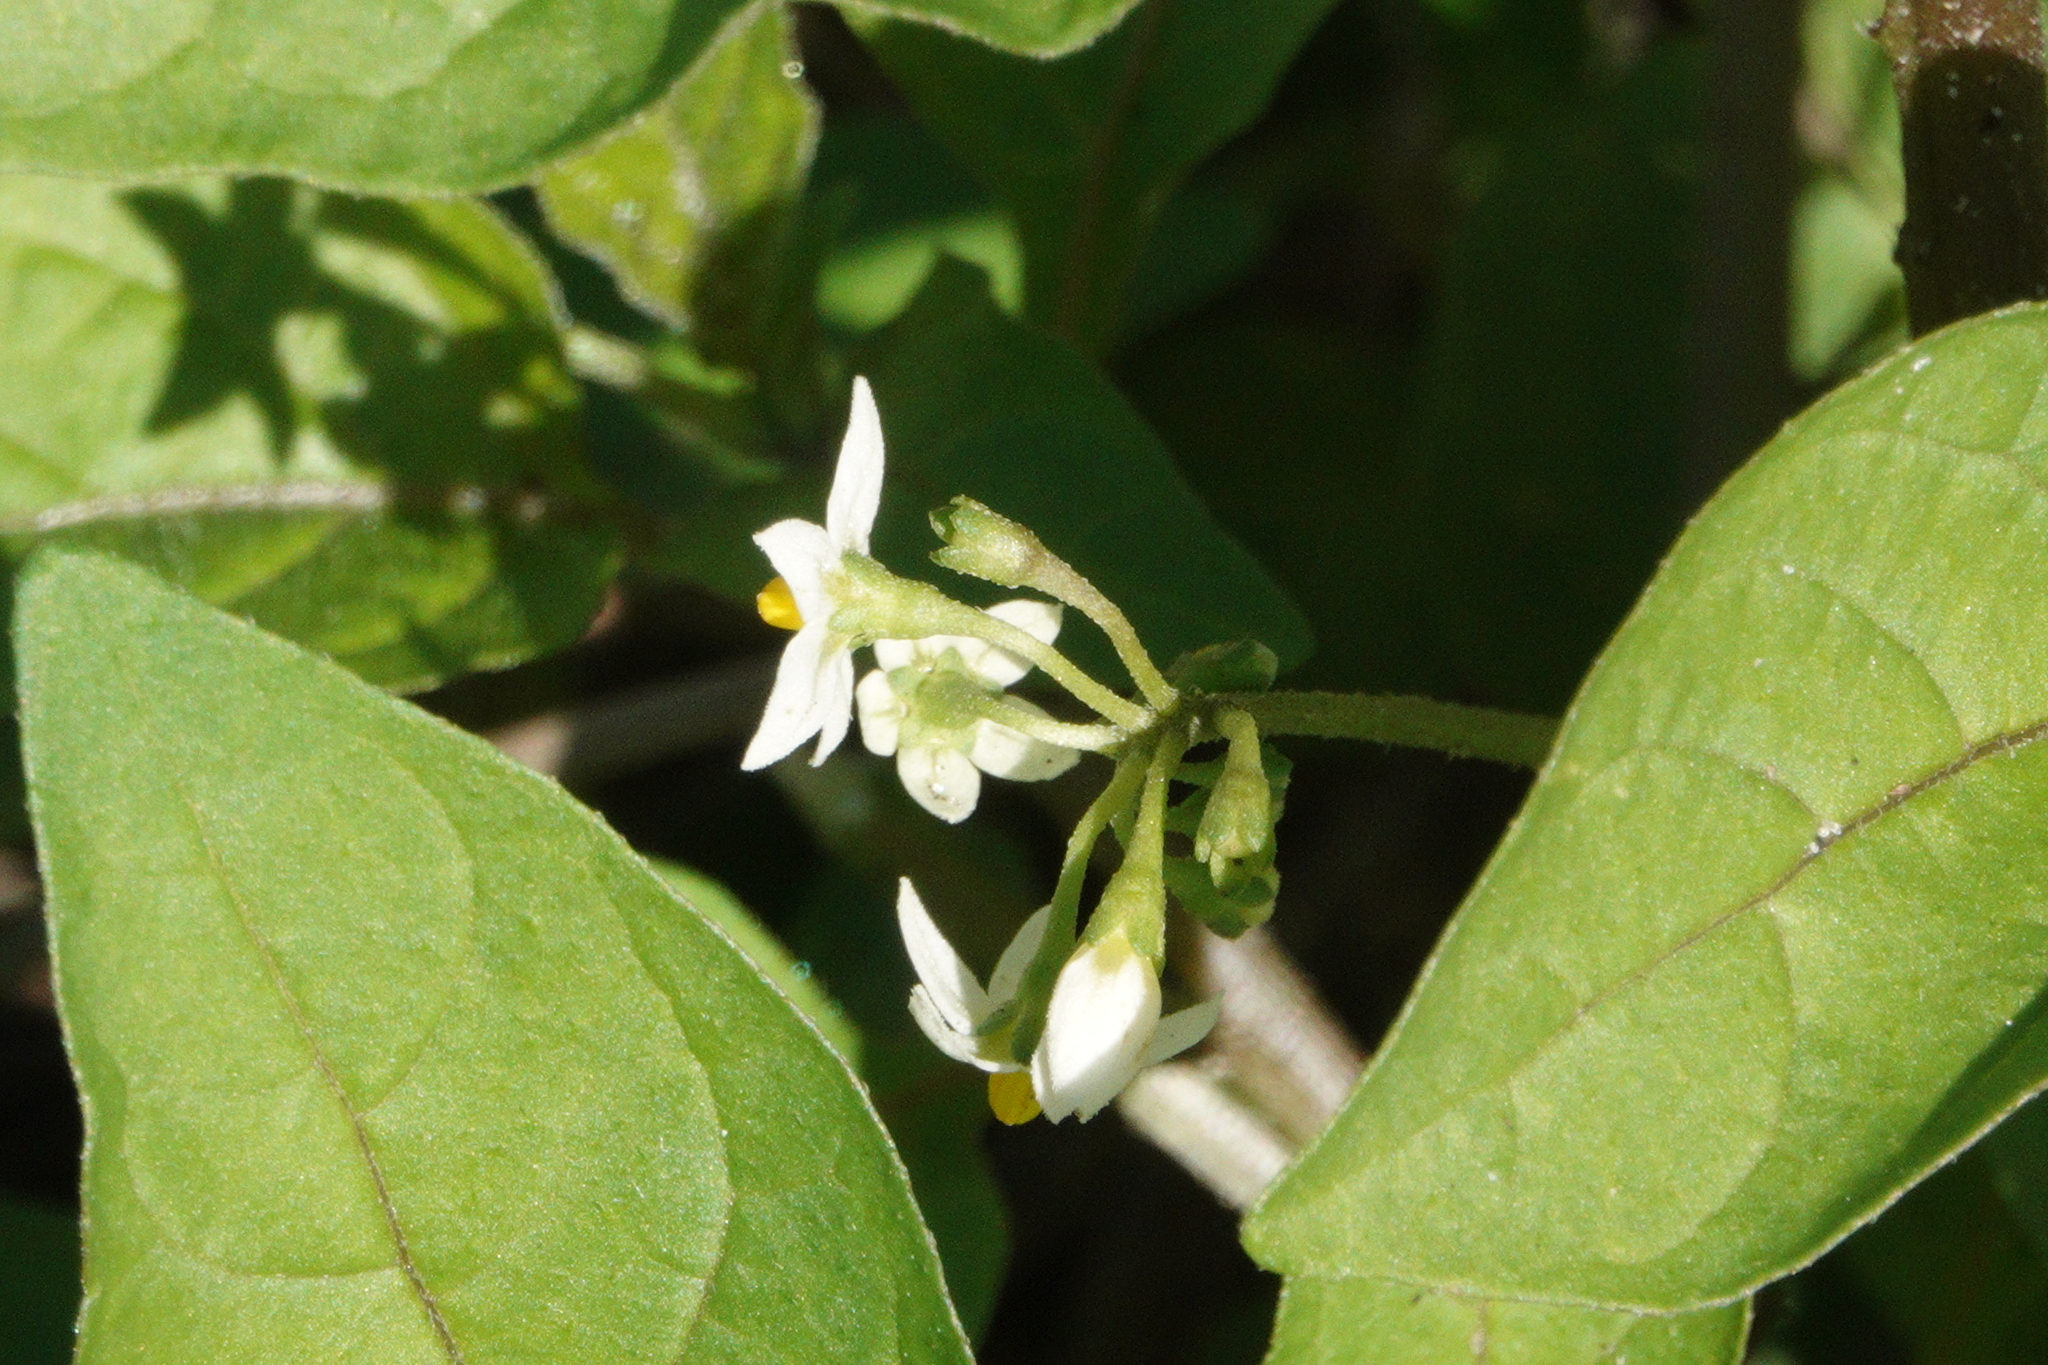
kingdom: Plantae
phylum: Tracheophyta
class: Magnoliopsida
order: Solanales
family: Solanaceae
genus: Solanum
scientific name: Solanum americanum
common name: American black nightshade
